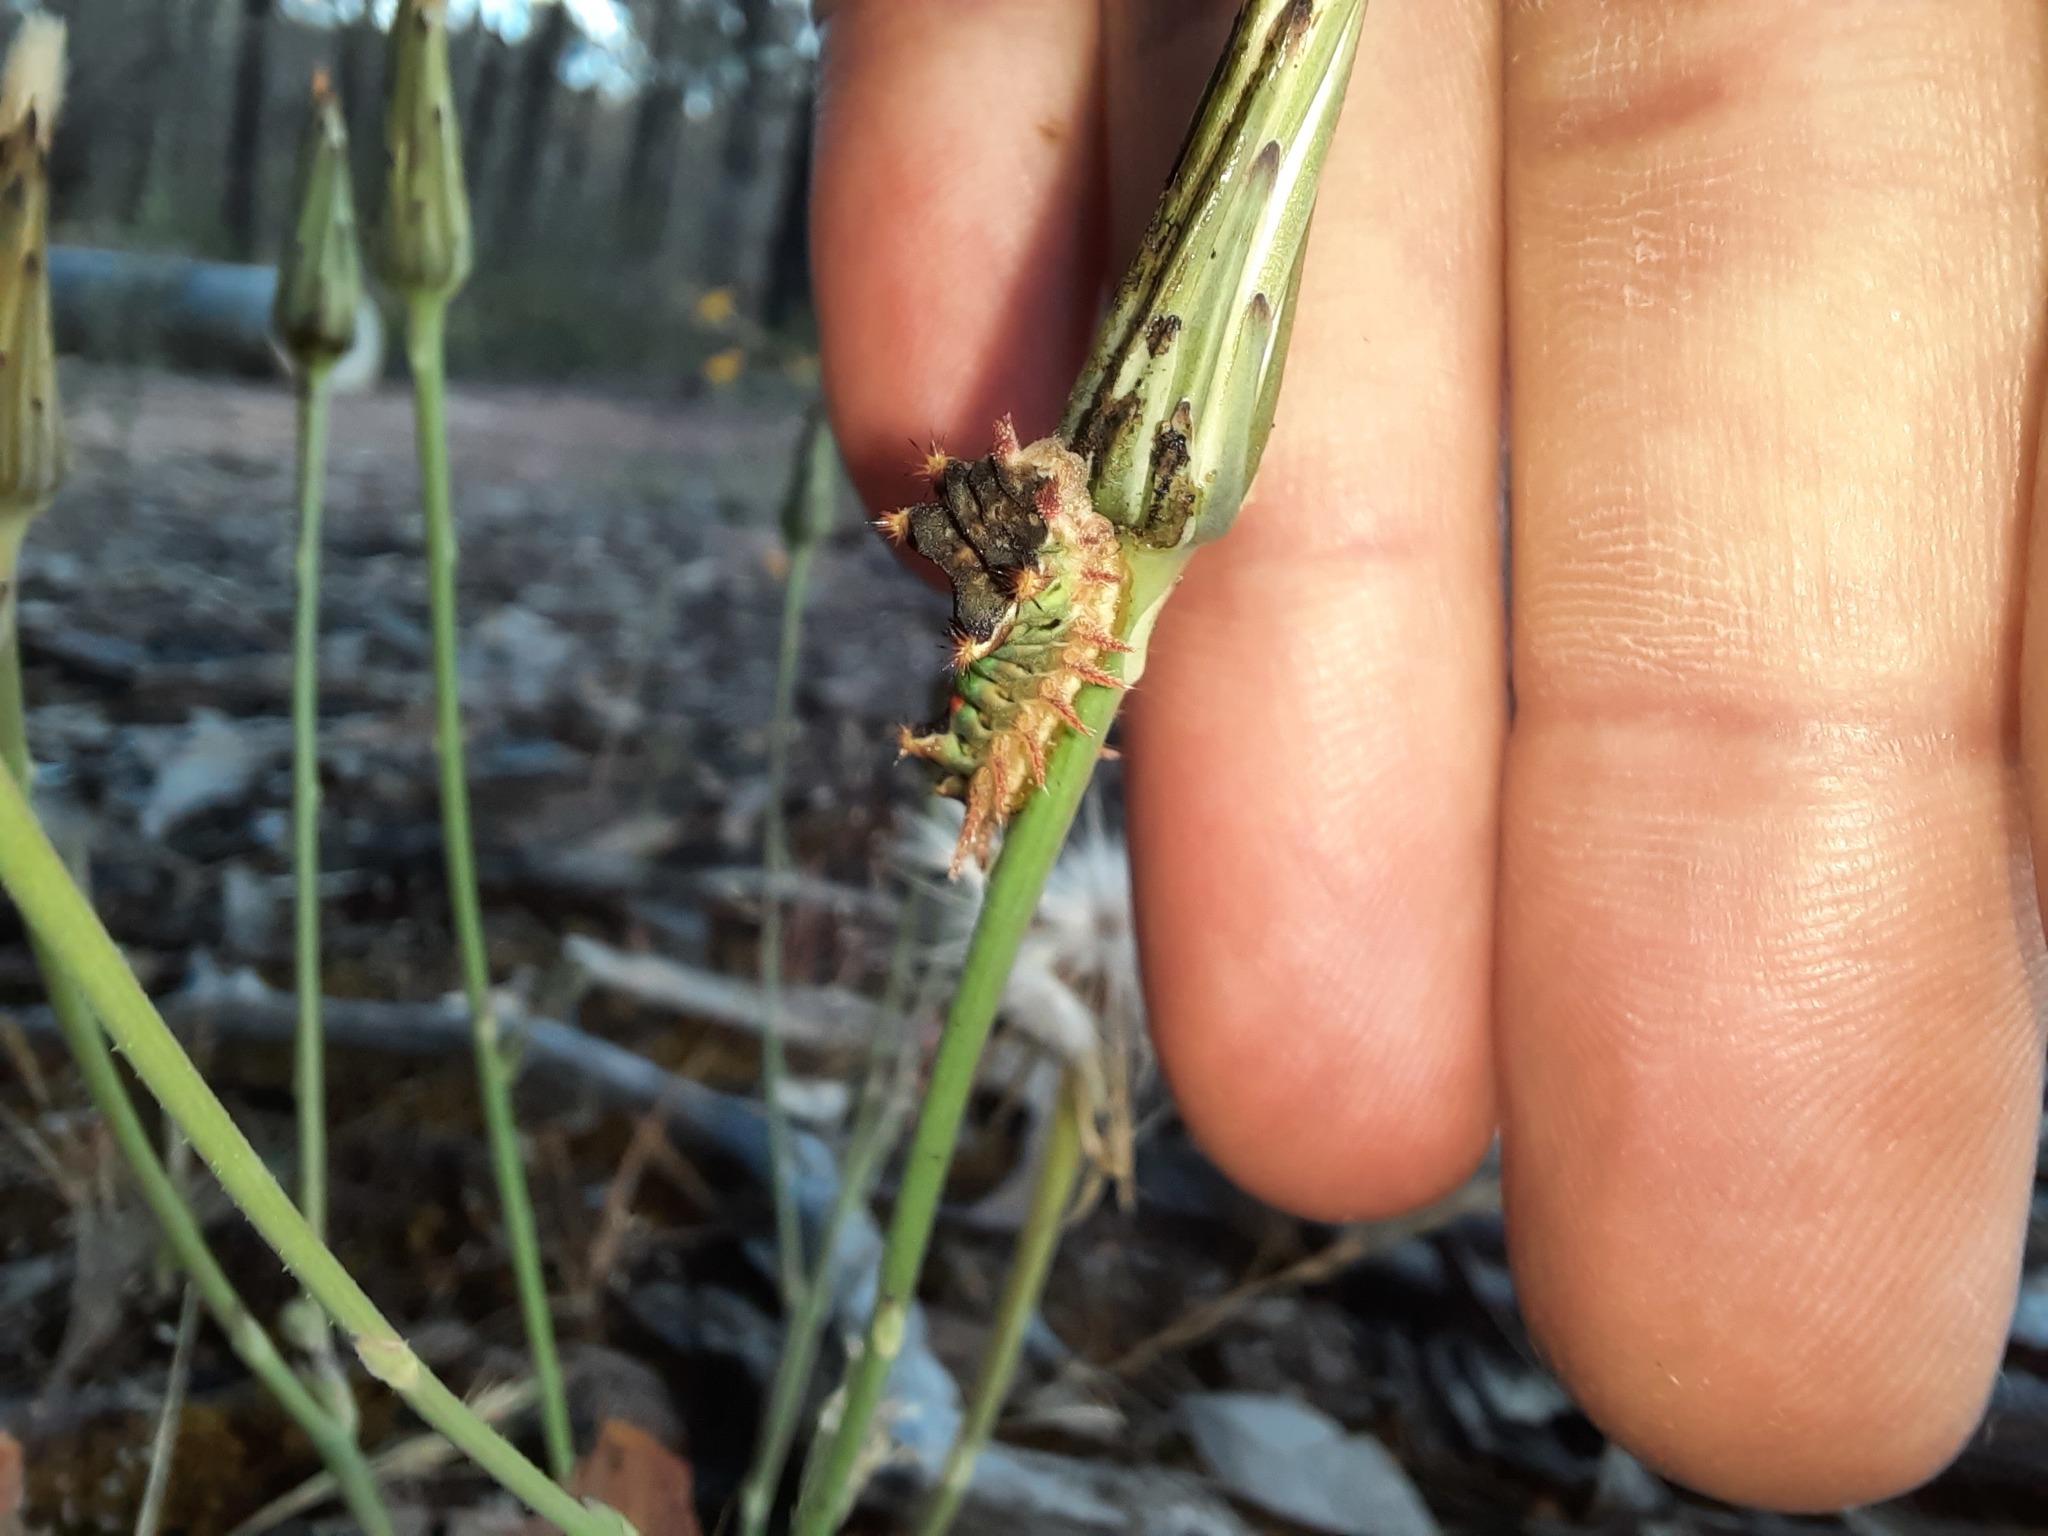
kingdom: Animalia
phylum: Arthropoda
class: Insecta
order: Lepidoptera
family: Limacodidae
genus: Doratifera
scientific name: Doratifera oxleyi
